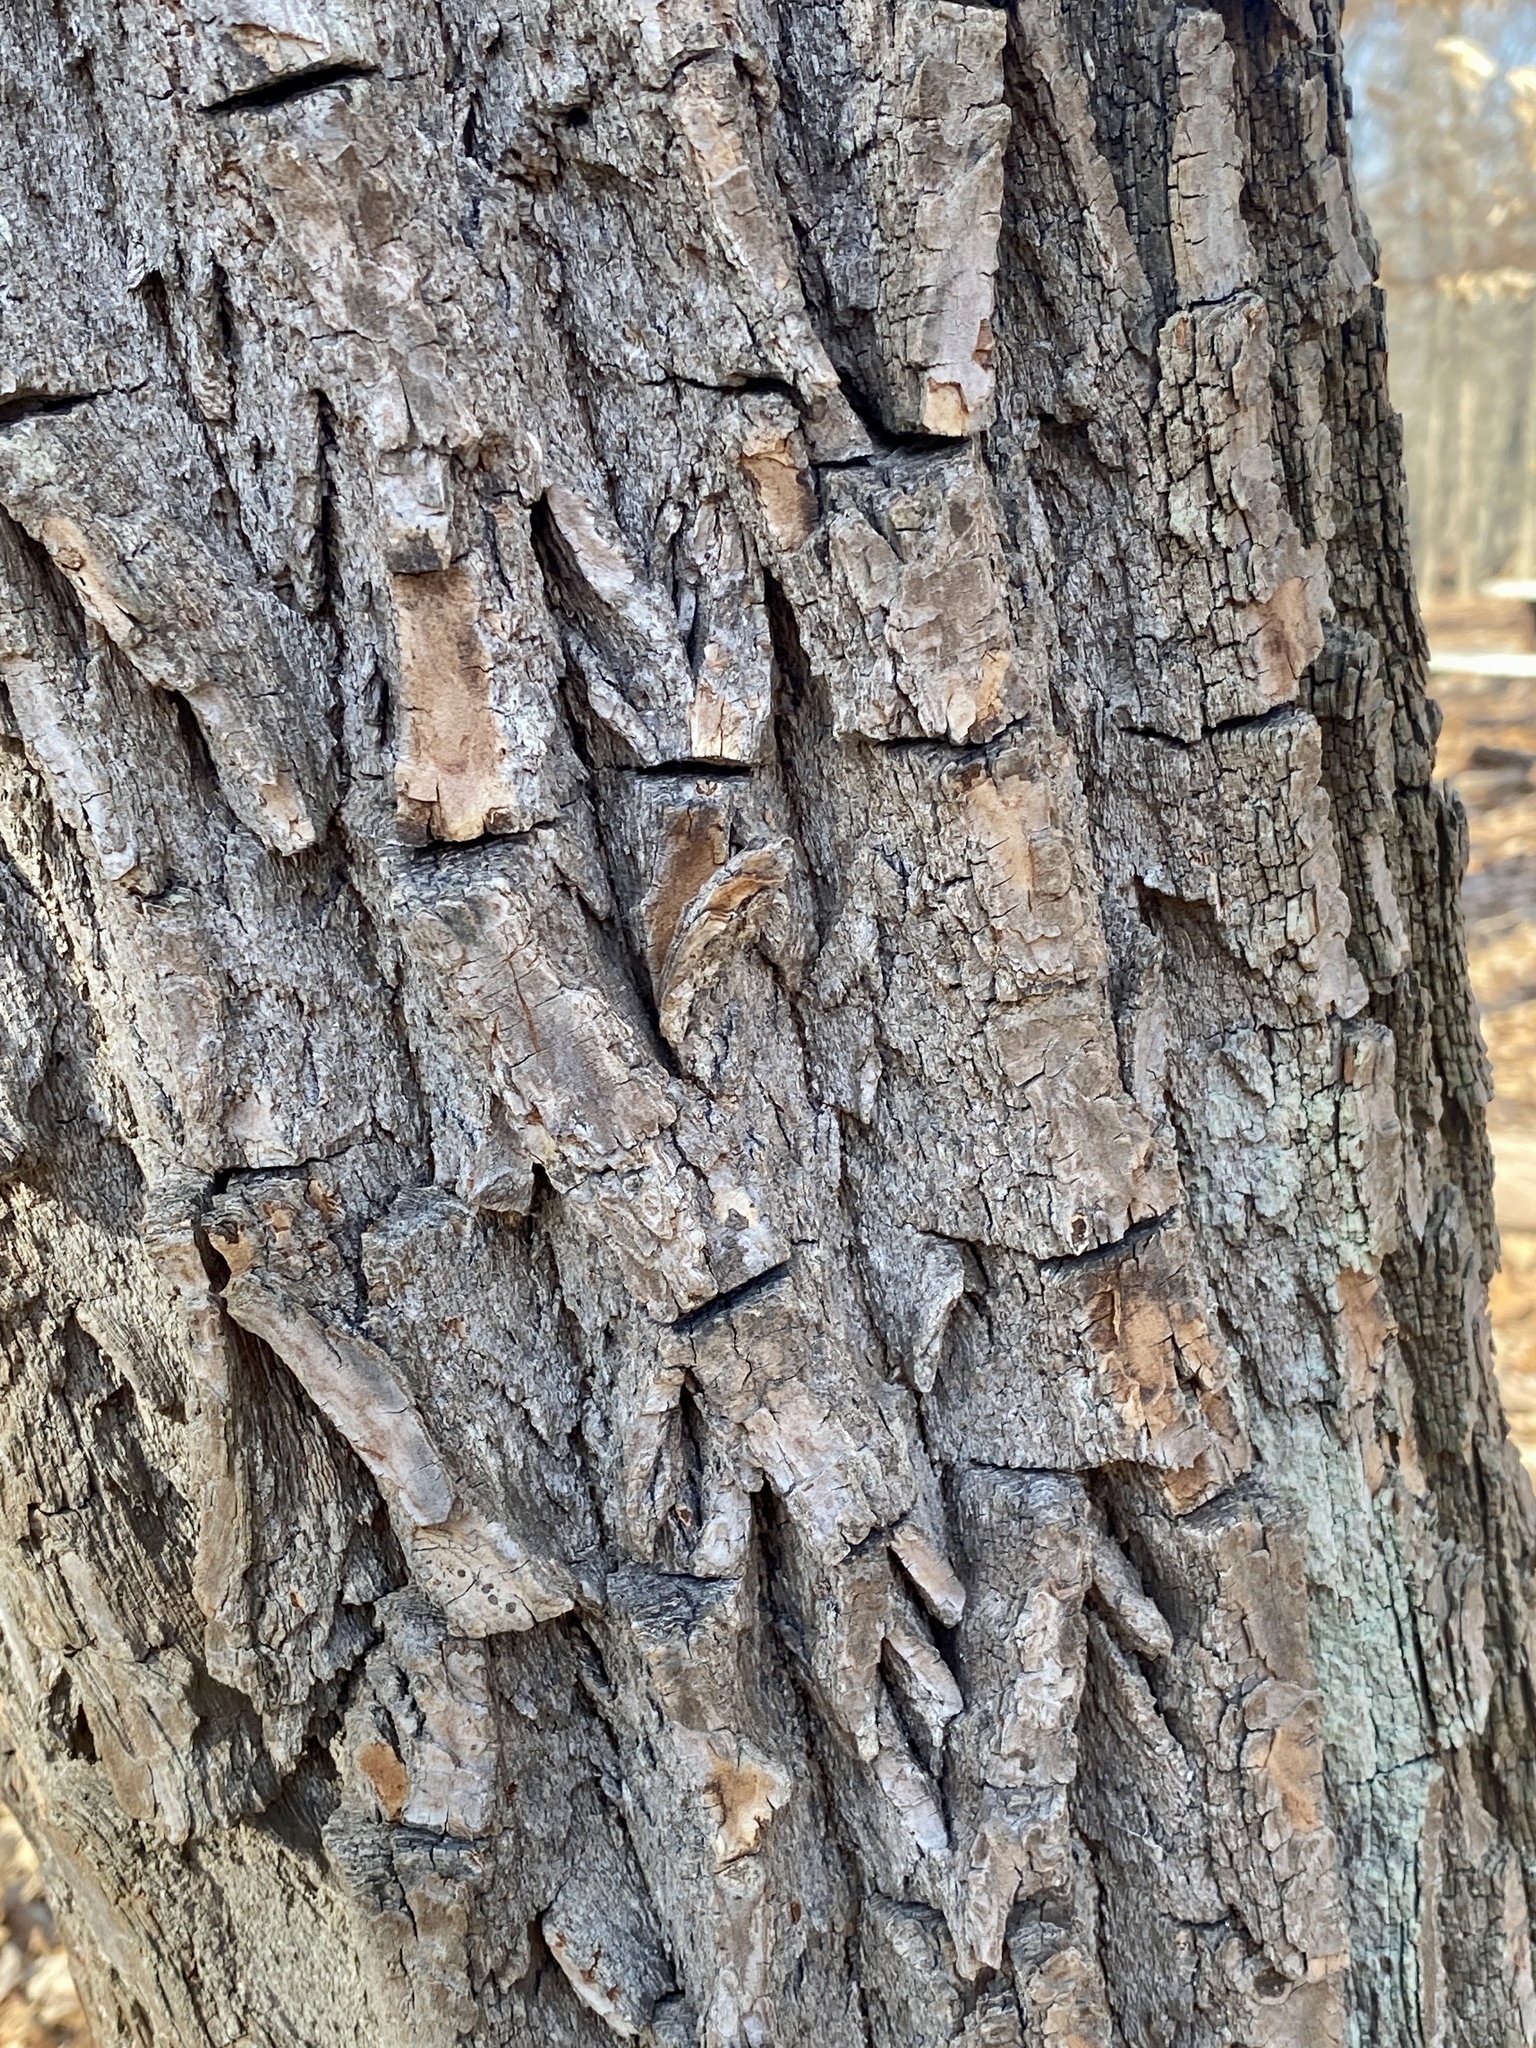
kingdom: Plantae
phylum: Tracheophyta
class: Magnoliopsida
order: Laurales
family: Lauraceae
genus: Sassafras
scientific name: Sassafras albidum
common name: Sassafras
